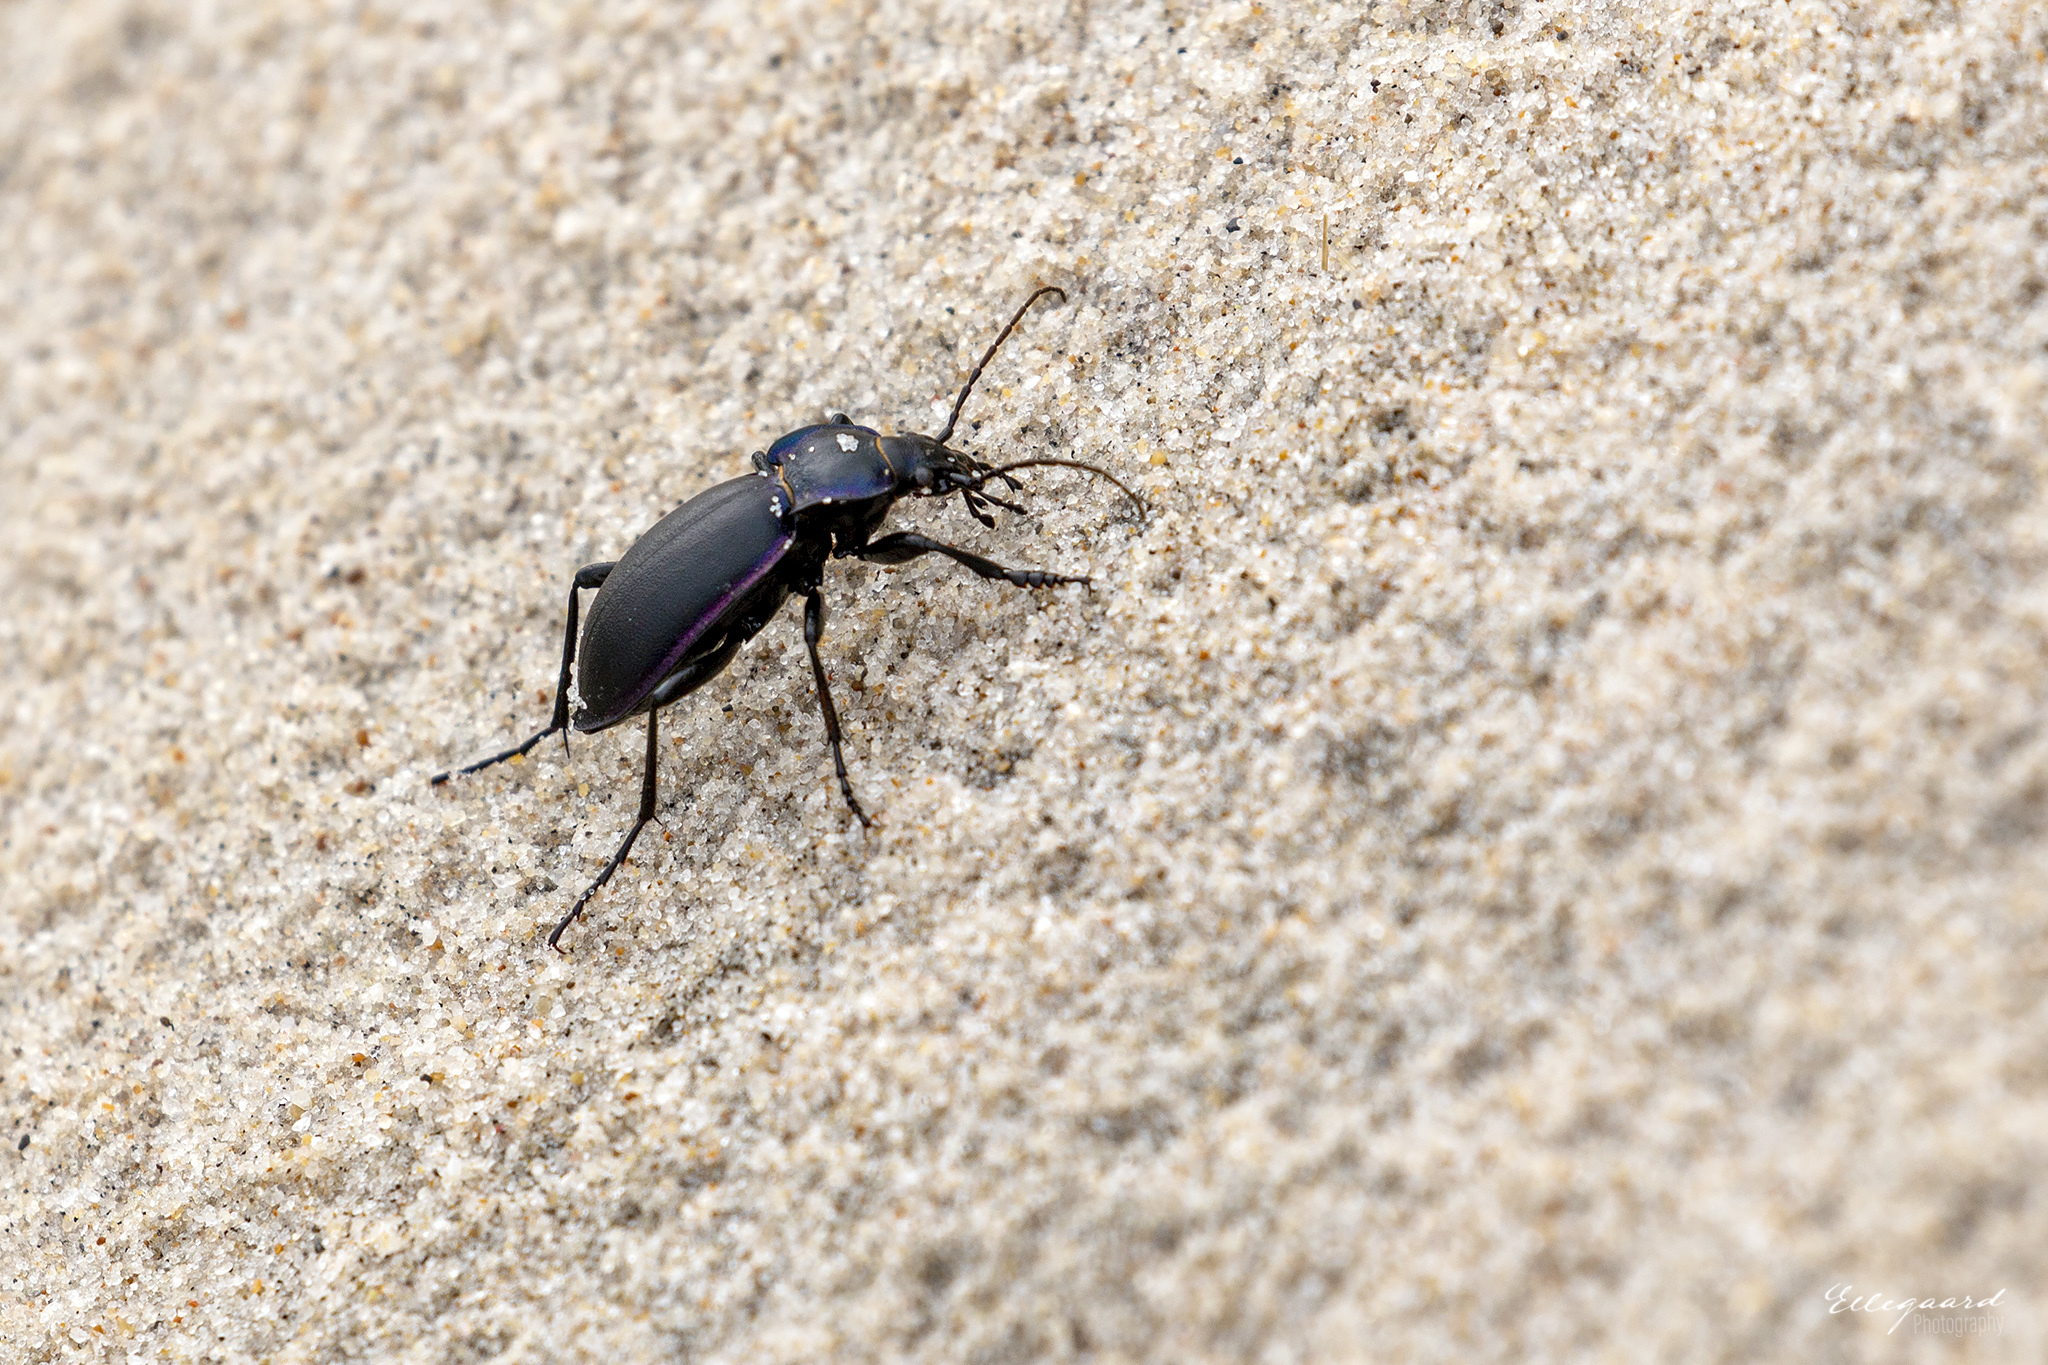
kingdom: Animalia
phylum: Arthropoda
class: Insecta
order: Coleoptera
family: Carabidae
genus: Carabus
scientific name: Carabus violaceus
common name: Violet ground beetle
